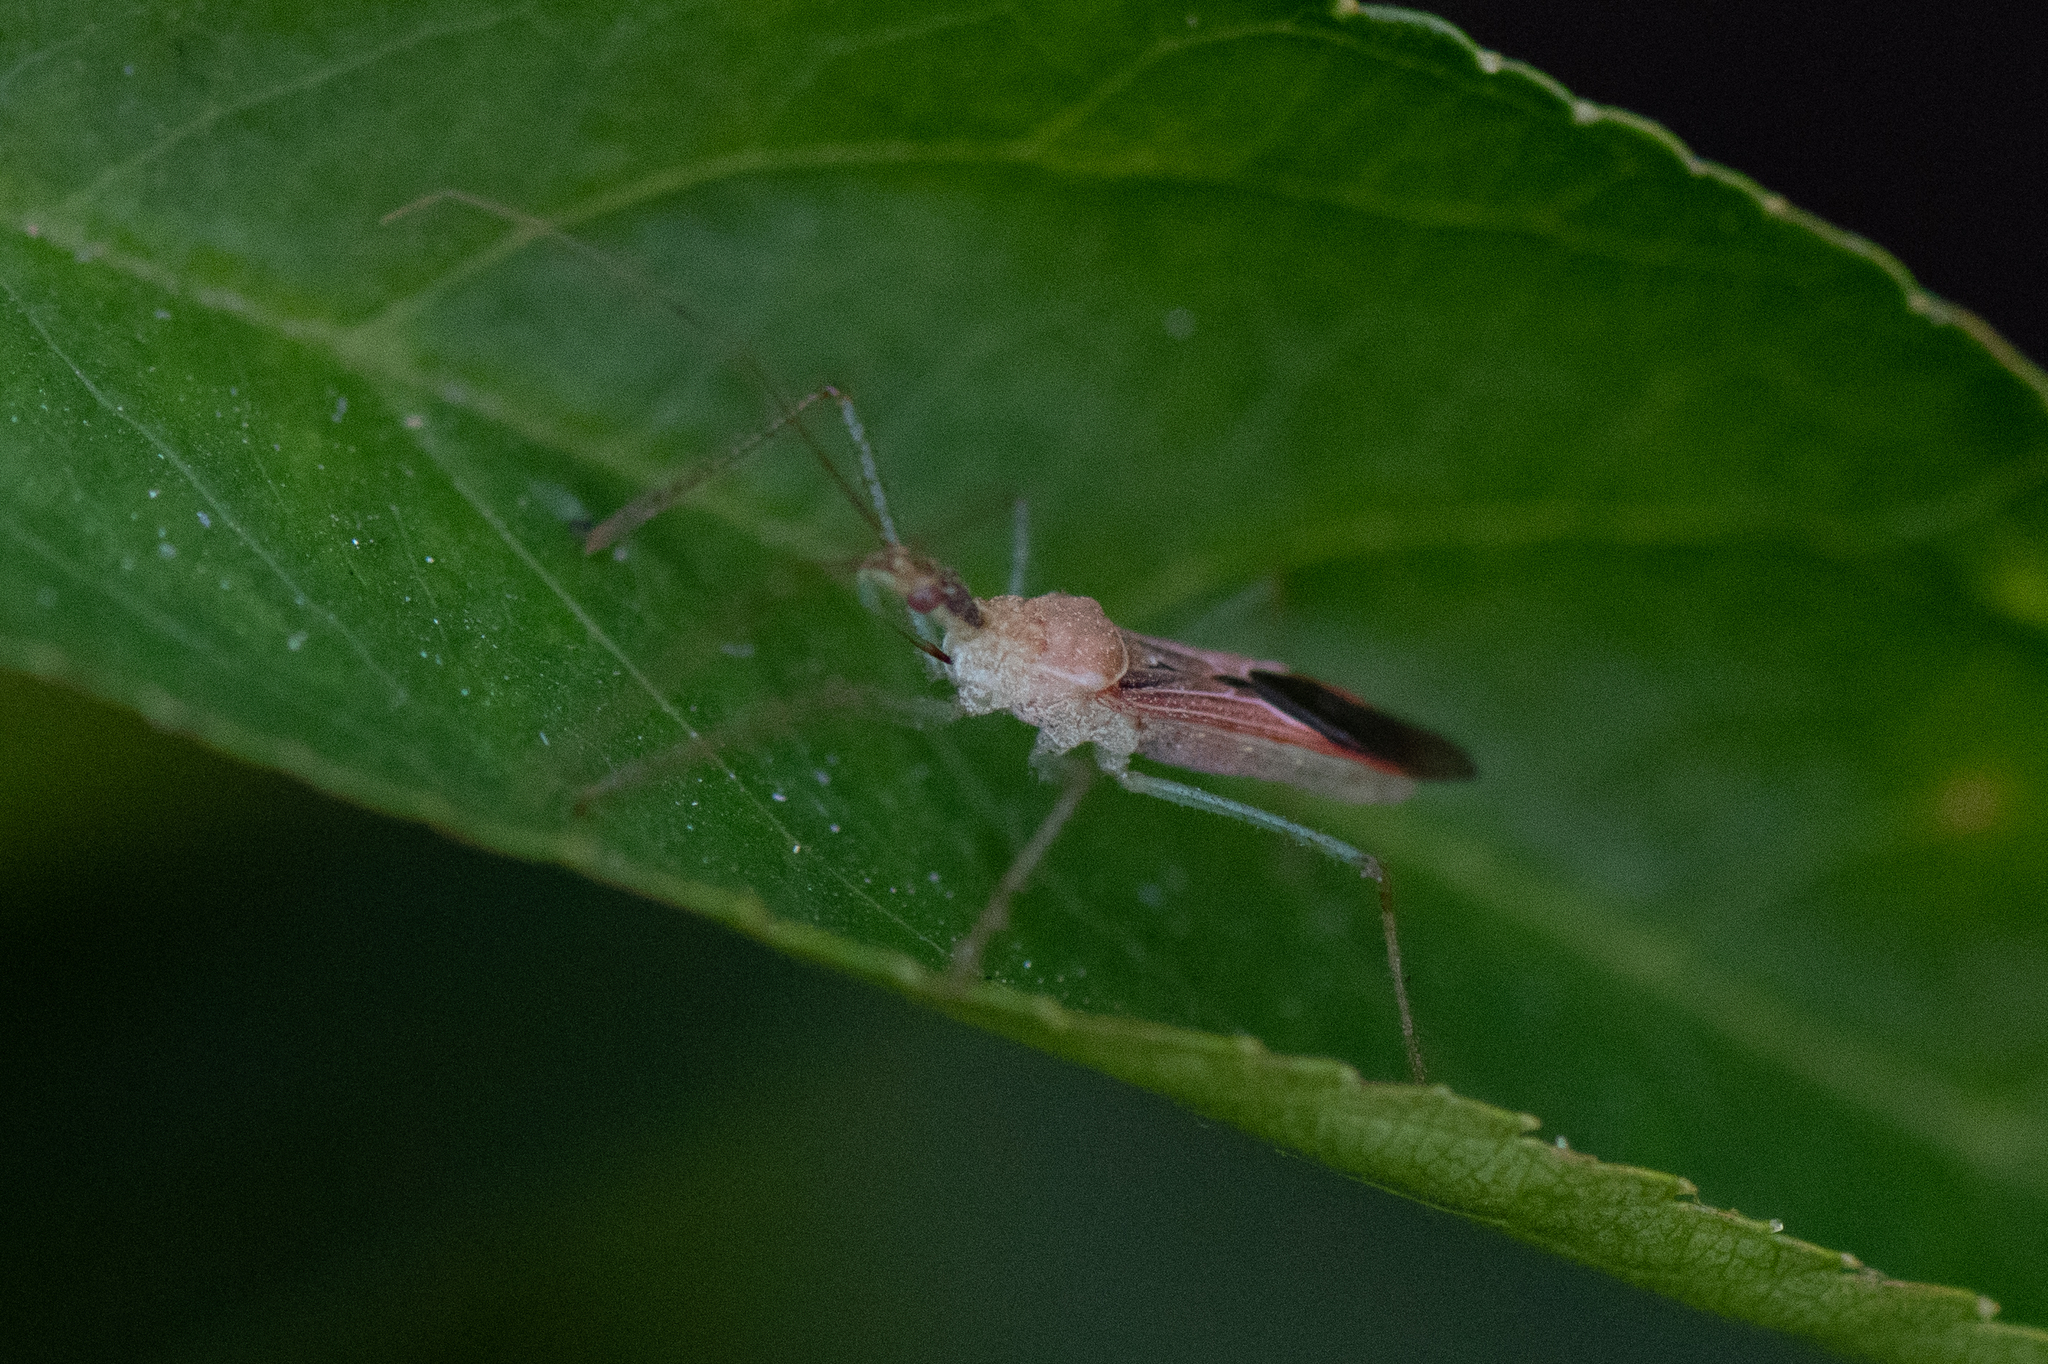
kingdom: Animalia
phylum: Arthropoda
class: Insecta
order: Hemiptera
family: Reduviidae
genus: Zelus
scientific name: Zelus renardii
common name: Assassin bug
